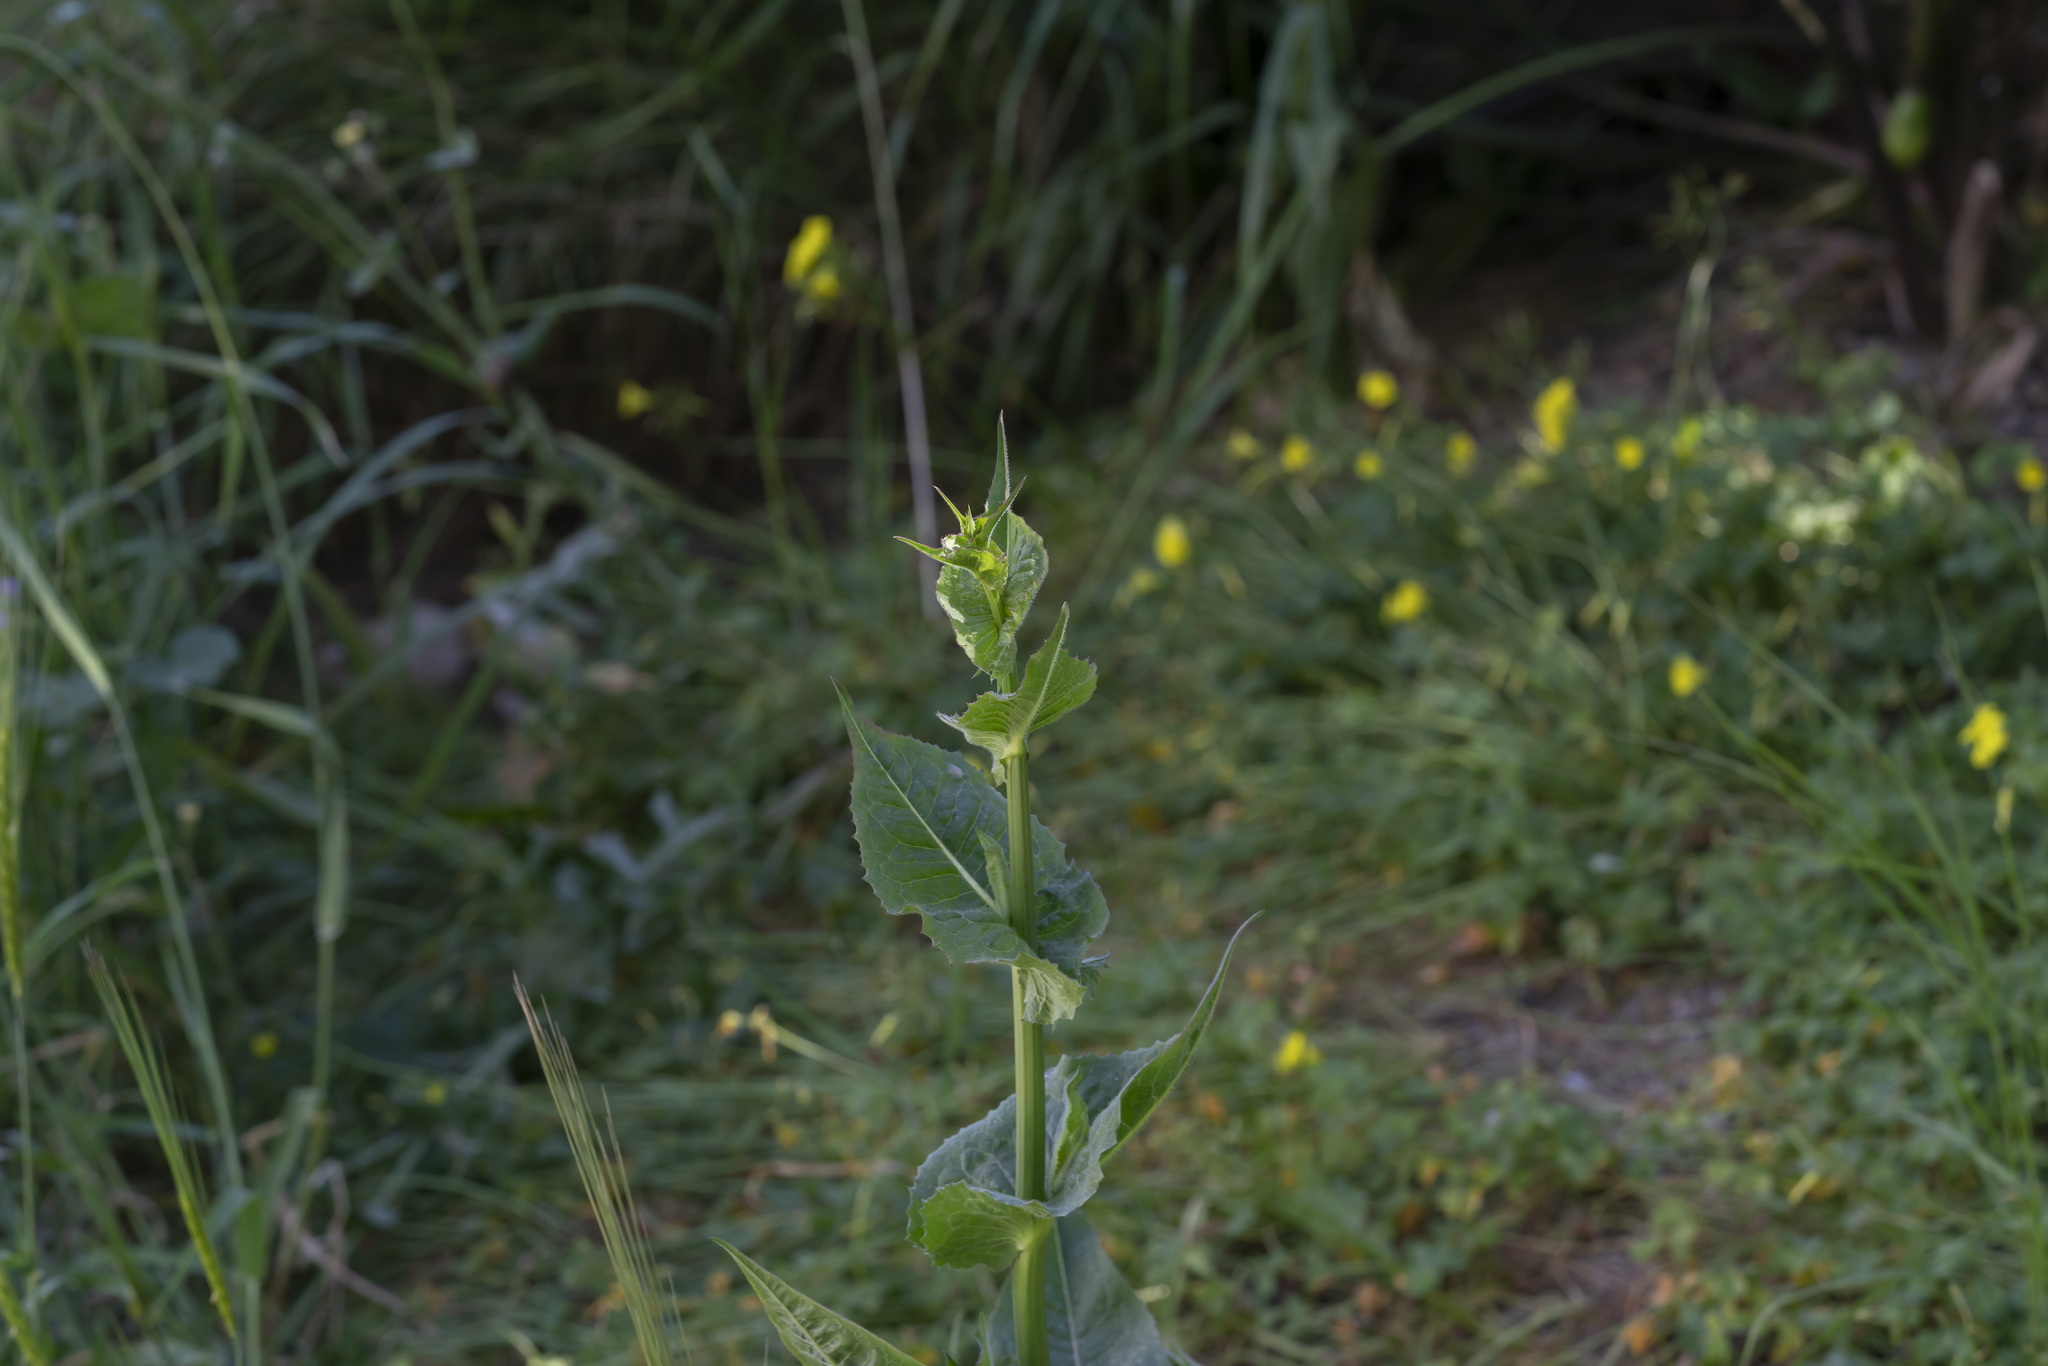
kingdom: Plantae
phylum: Tracheophyta
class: Magnoliopsida
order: Asterales
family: Asteraceae
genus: Sonchus
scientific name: Sonchus oleraceus
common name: Common sowthistle
